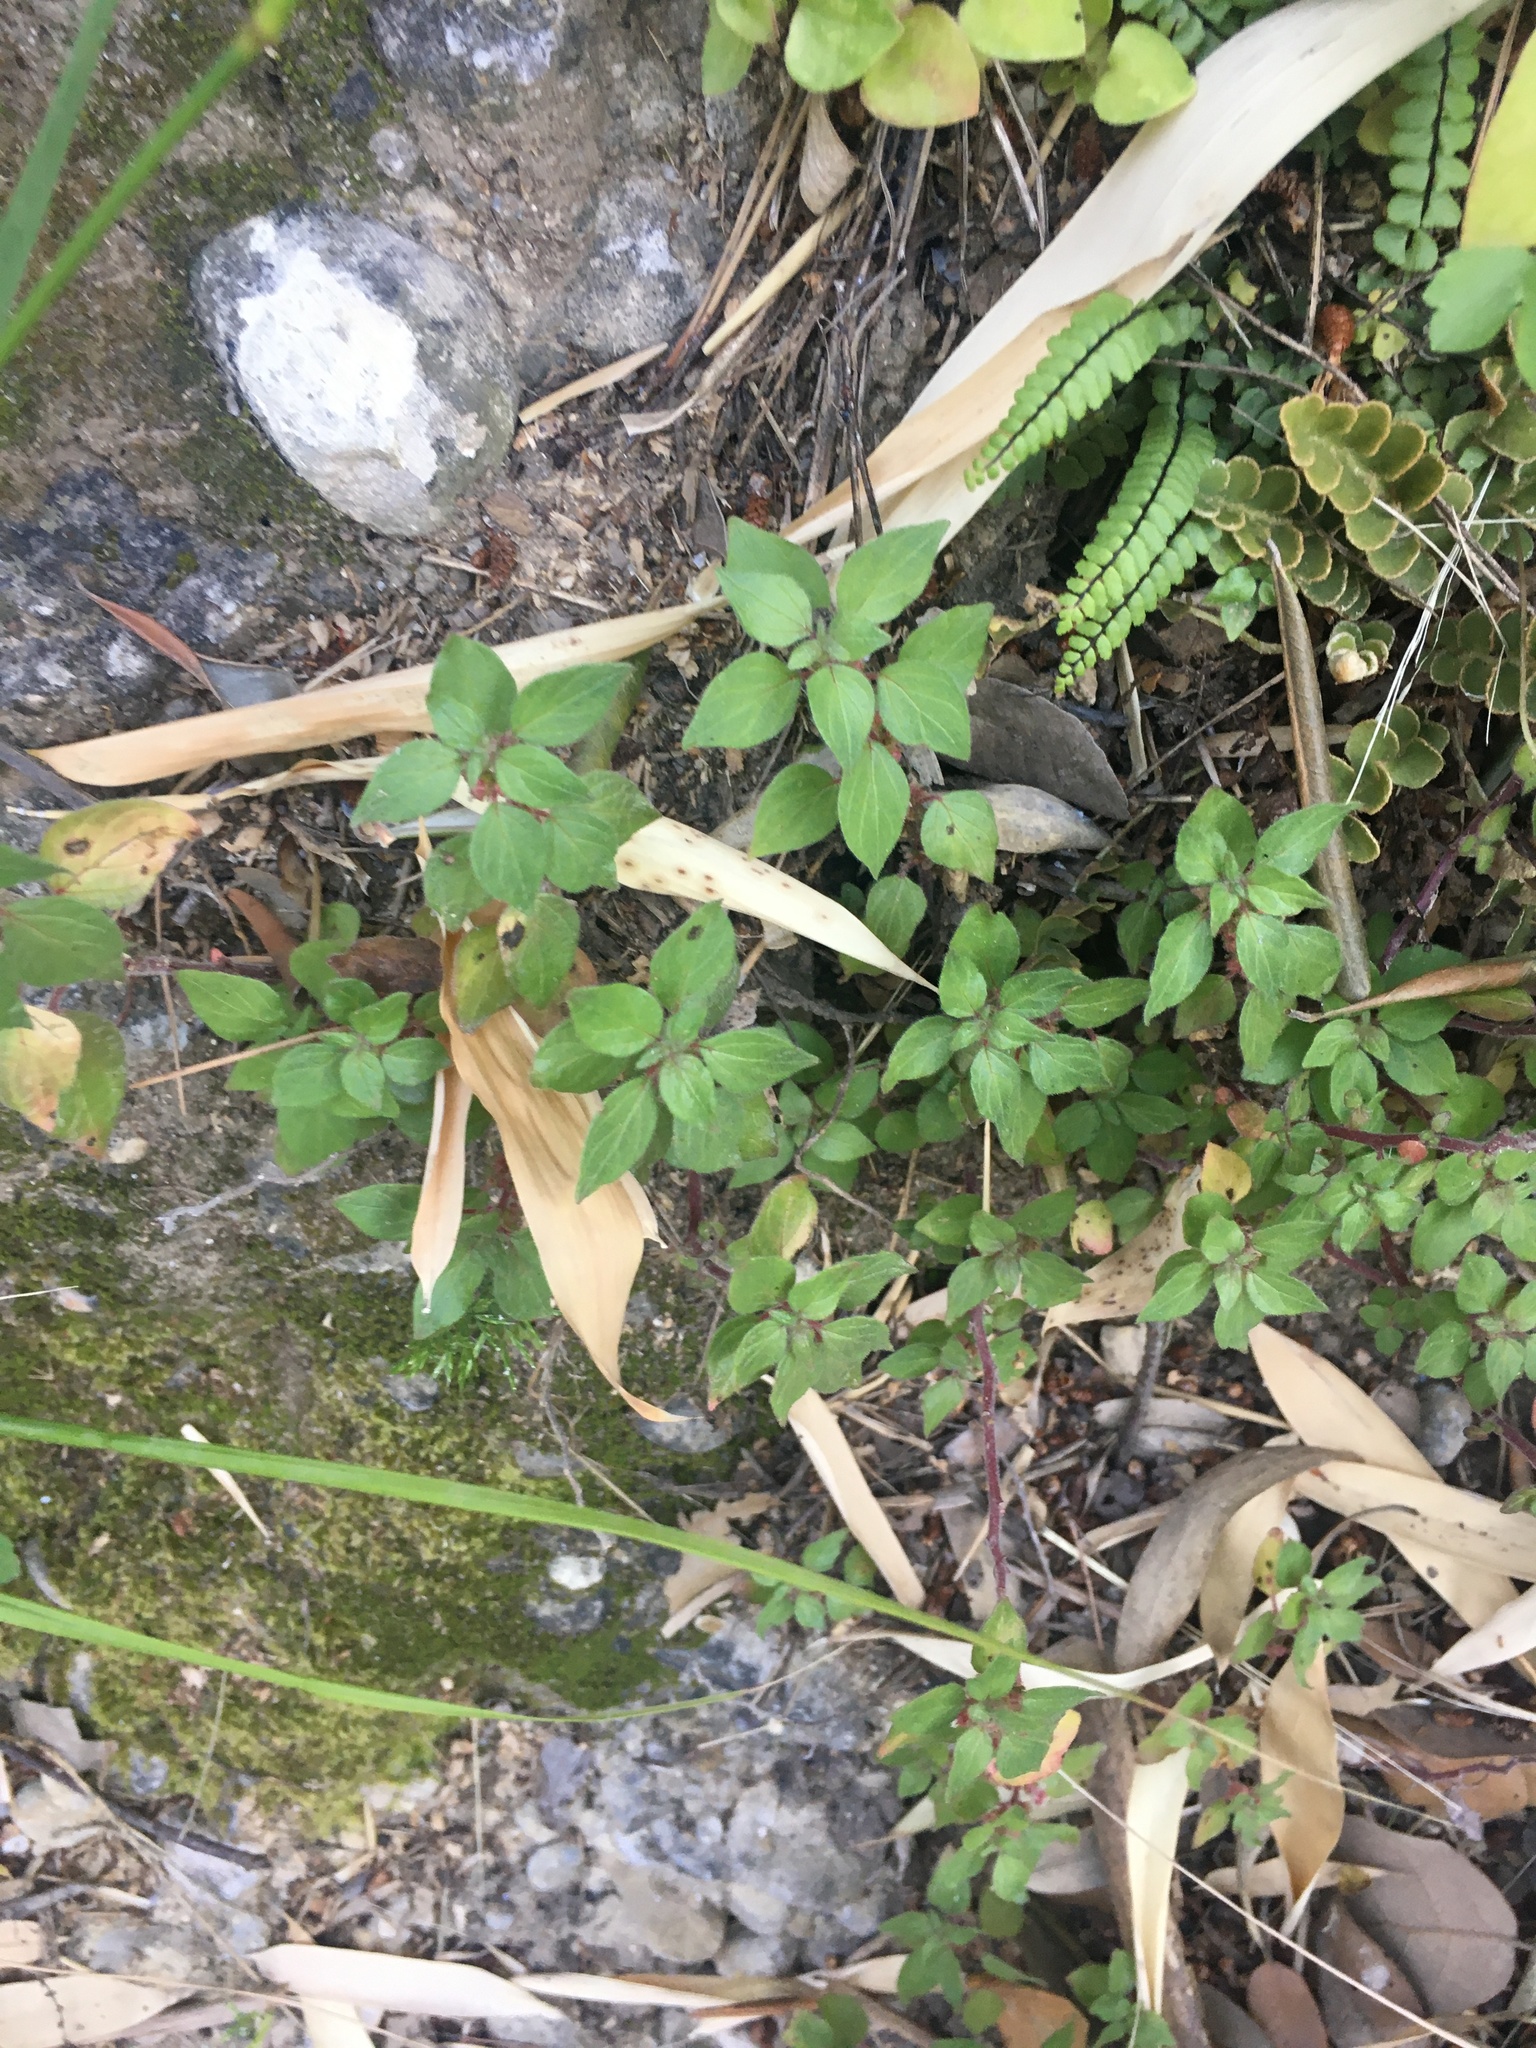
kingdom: Plantae
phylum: Tracheophyta
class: Magnoliopsida
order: Rosales
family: Urticaceae
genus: Parietaria
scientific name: Parietaria judaica
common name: Pellitory-of-the-wall
